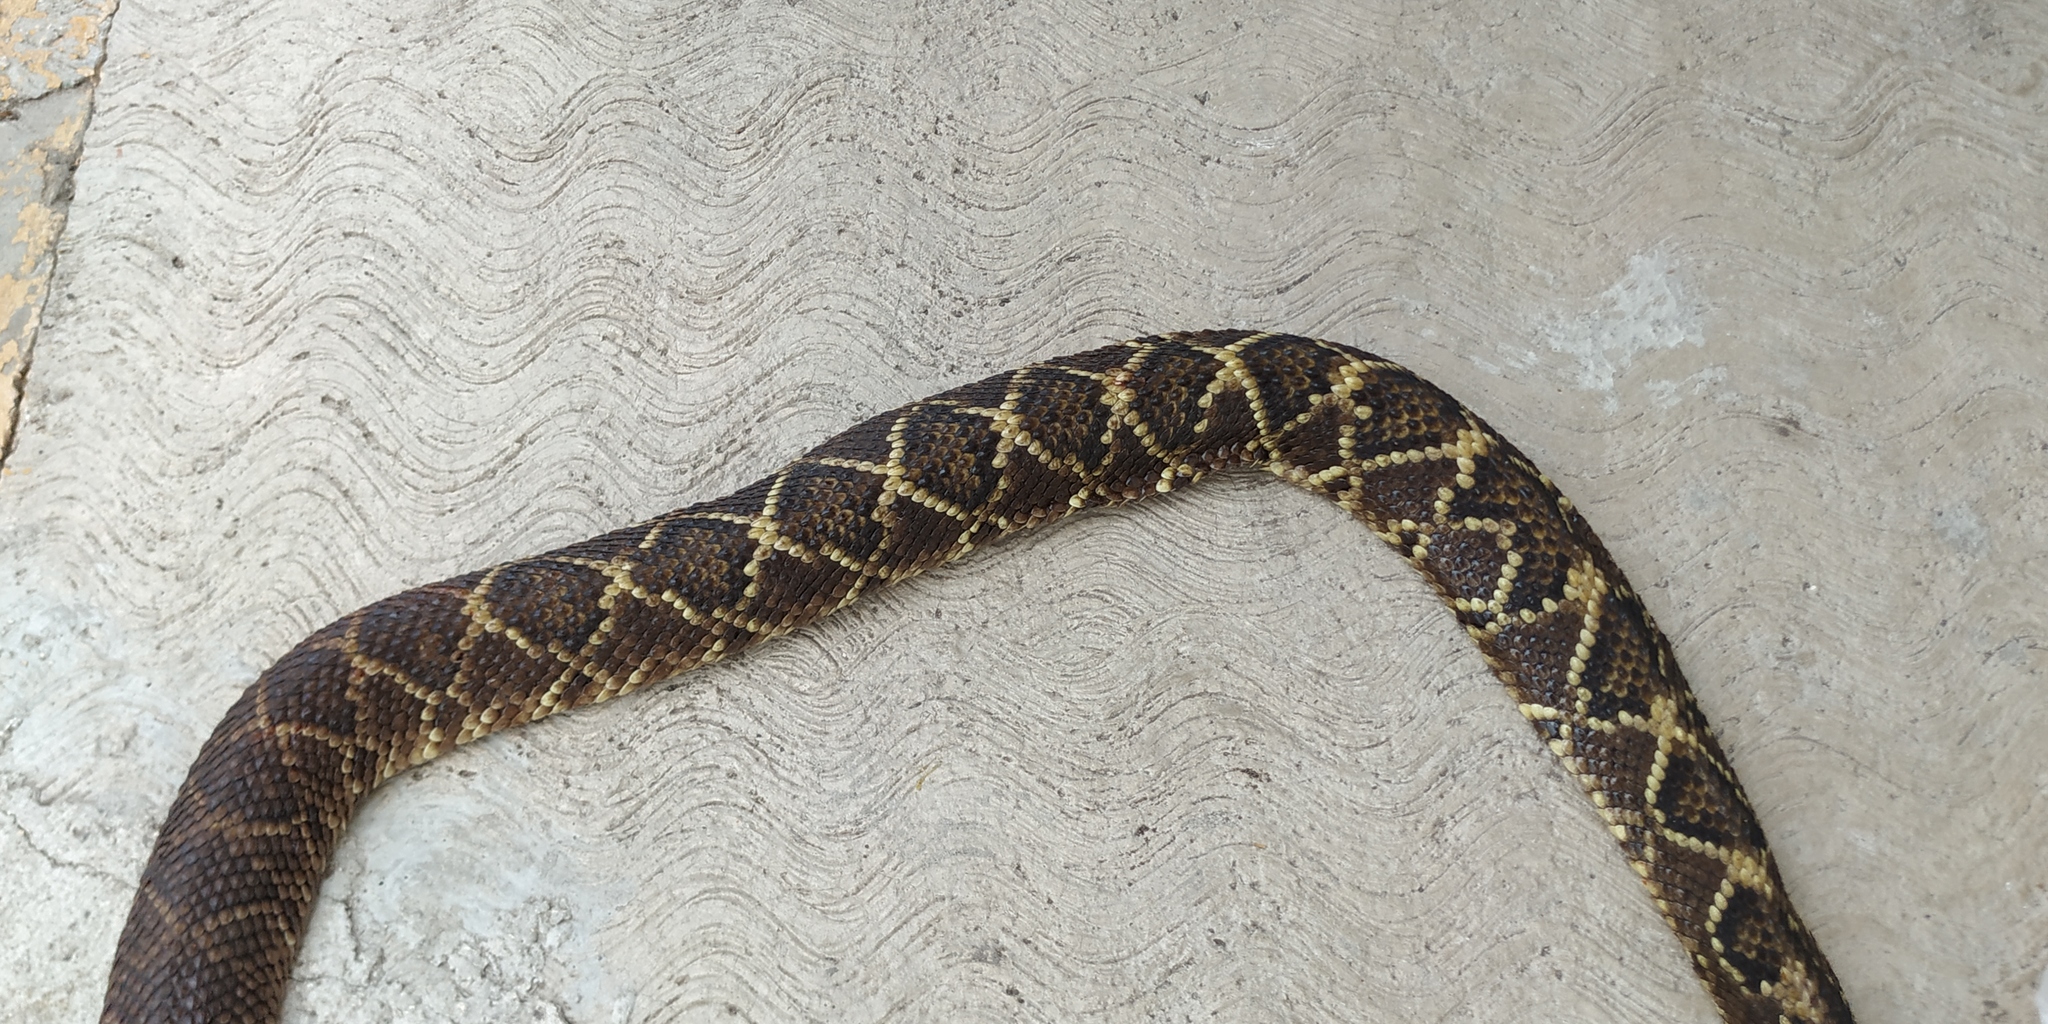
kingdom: Animalia
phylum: Chordata
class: Squamata
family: Viperidae
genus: Crotalus
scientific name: Crotalus mictlantecuhtli
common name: Veracruz neotropical rattlesnake
